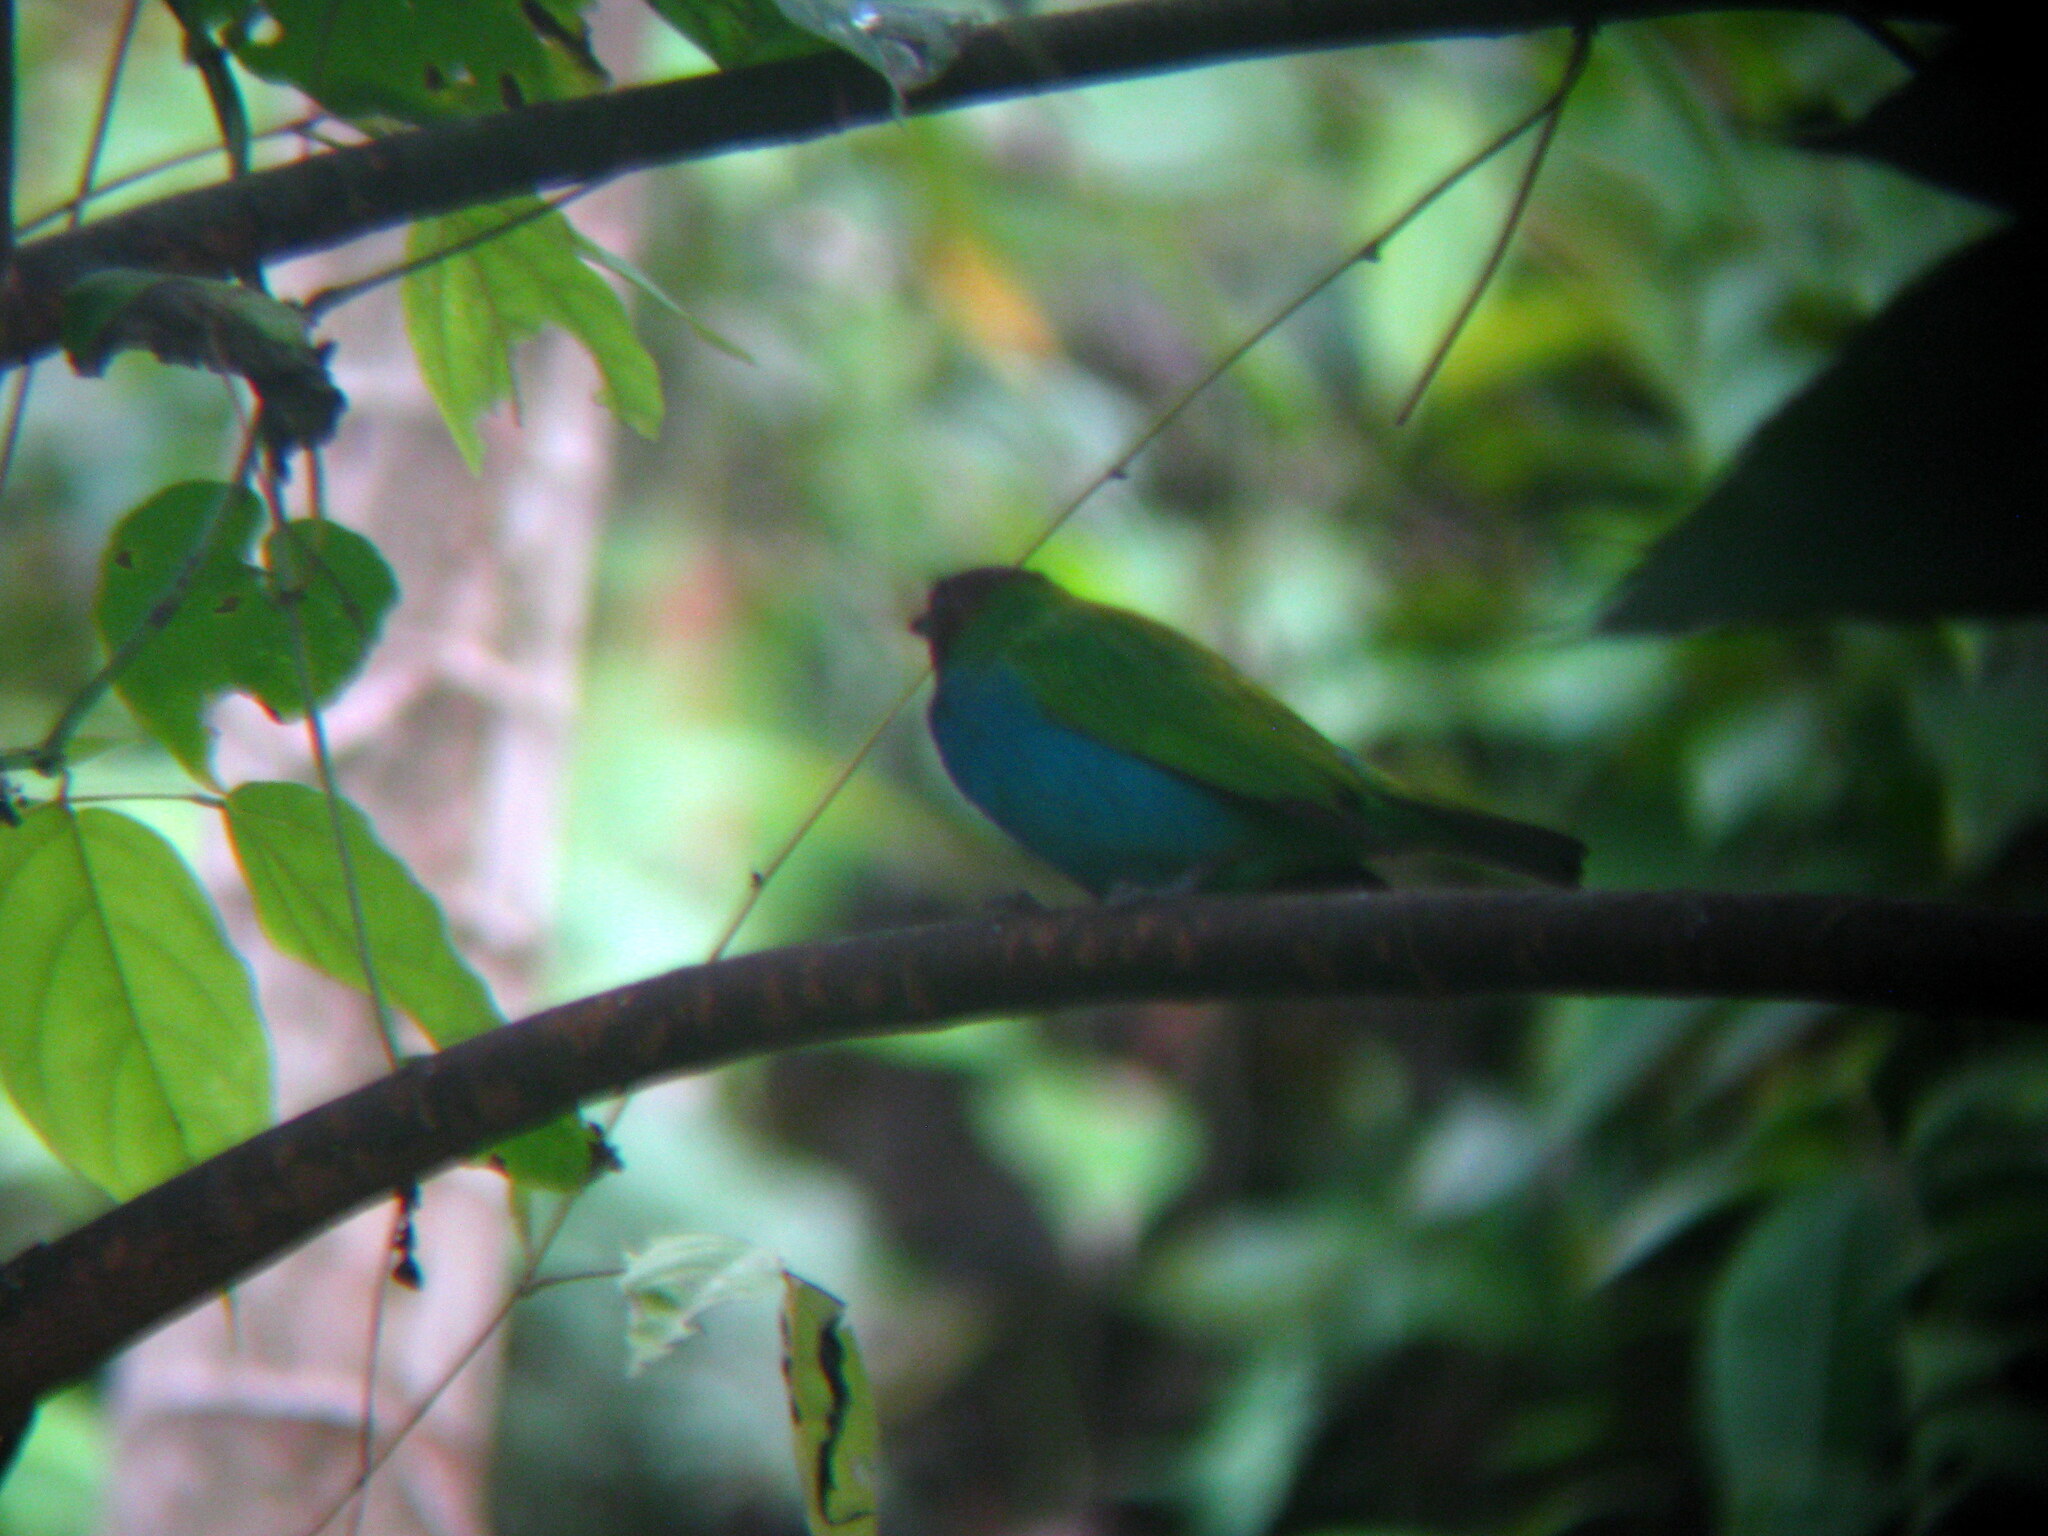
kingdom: Animalia
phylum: Chordata
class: Aves
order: Passeriformes
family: Thraupidae
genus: Tangara
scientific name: Tangara gyrola
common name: Bay-headed tanager
